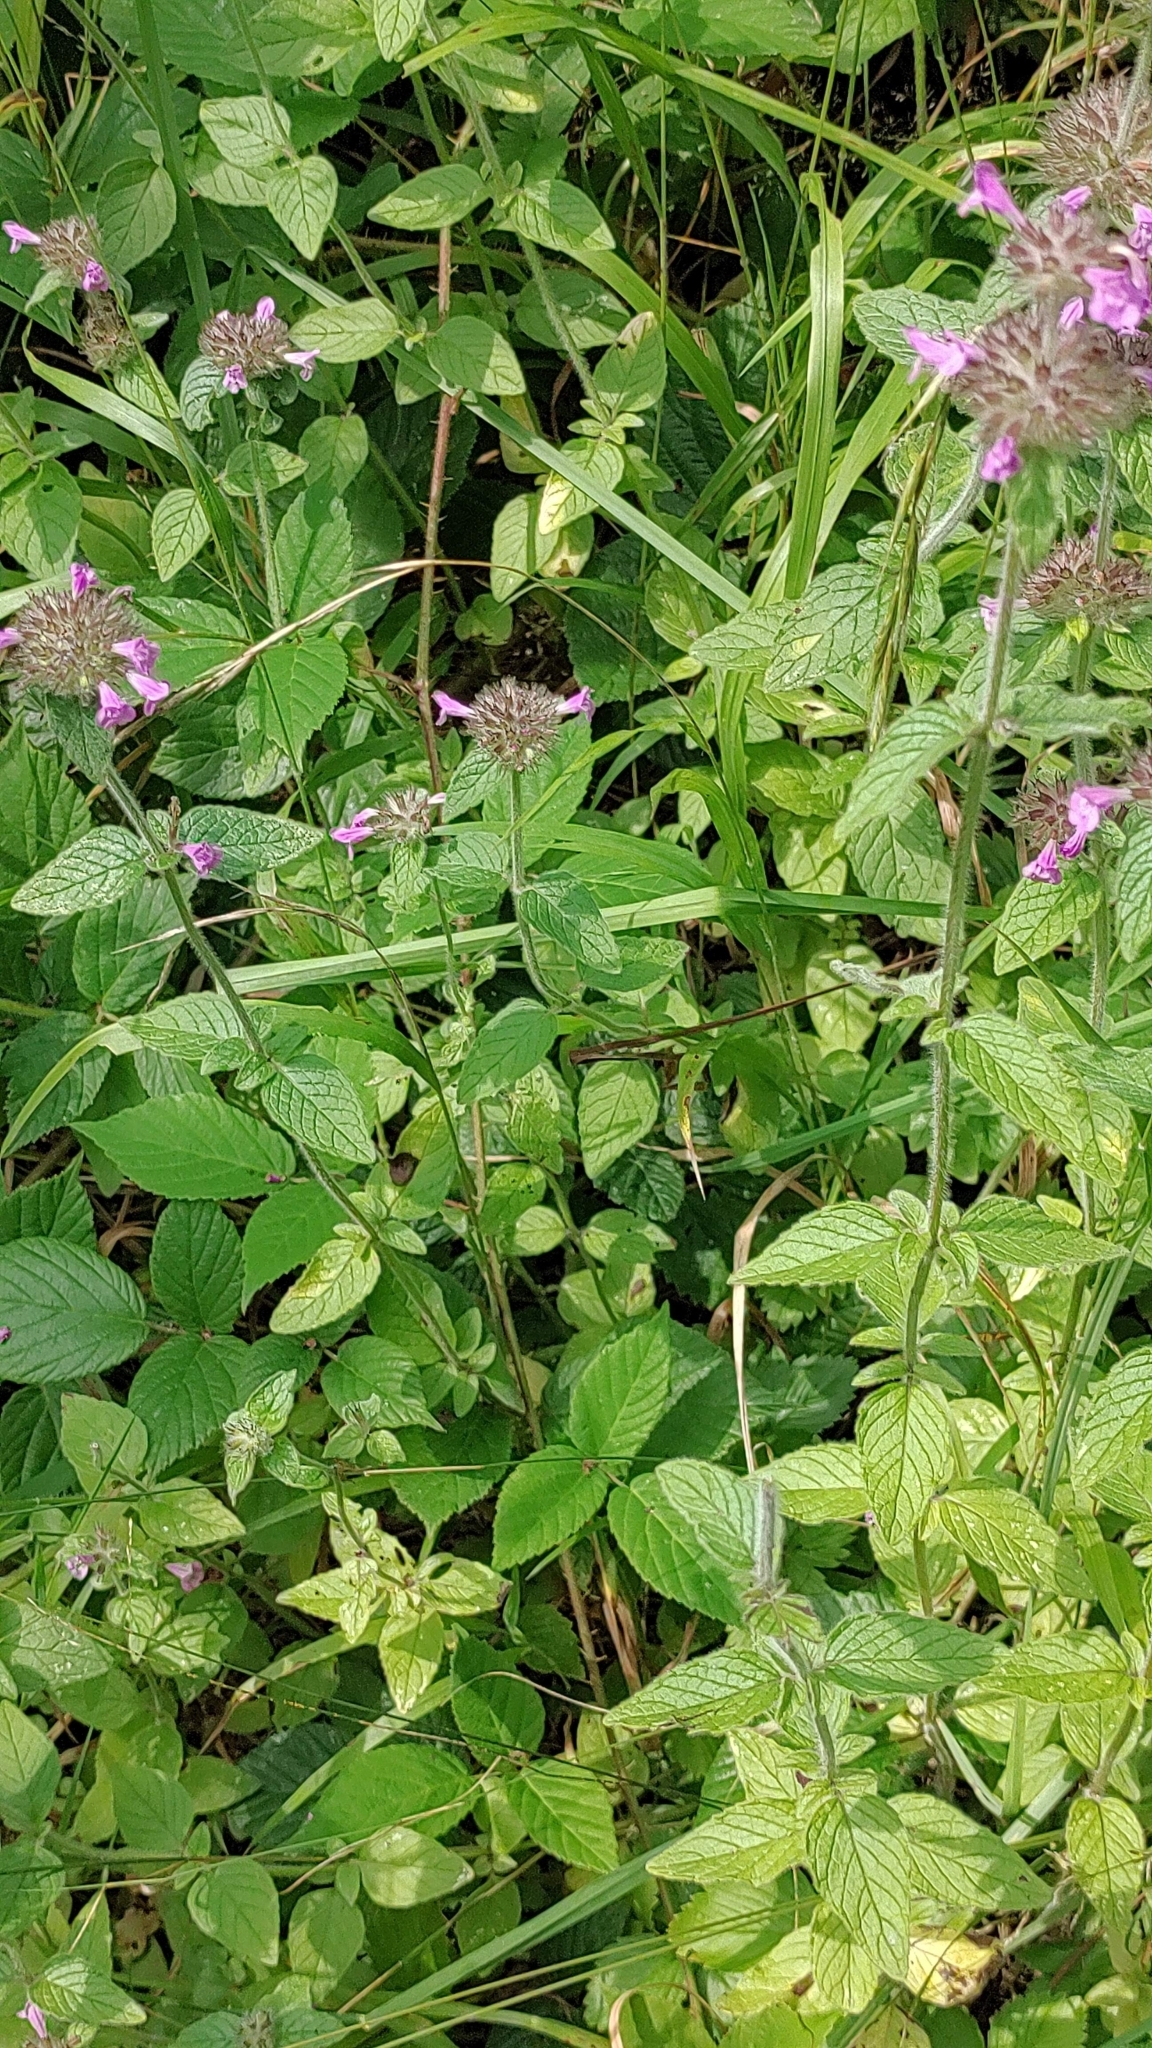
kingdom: Plantae
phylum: Tracheophyta
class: Magnoliopsida
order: Lamiales
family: Lamiaceae
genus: Clinopodium
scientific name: Clinopodium vulgare
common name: Wild basil
